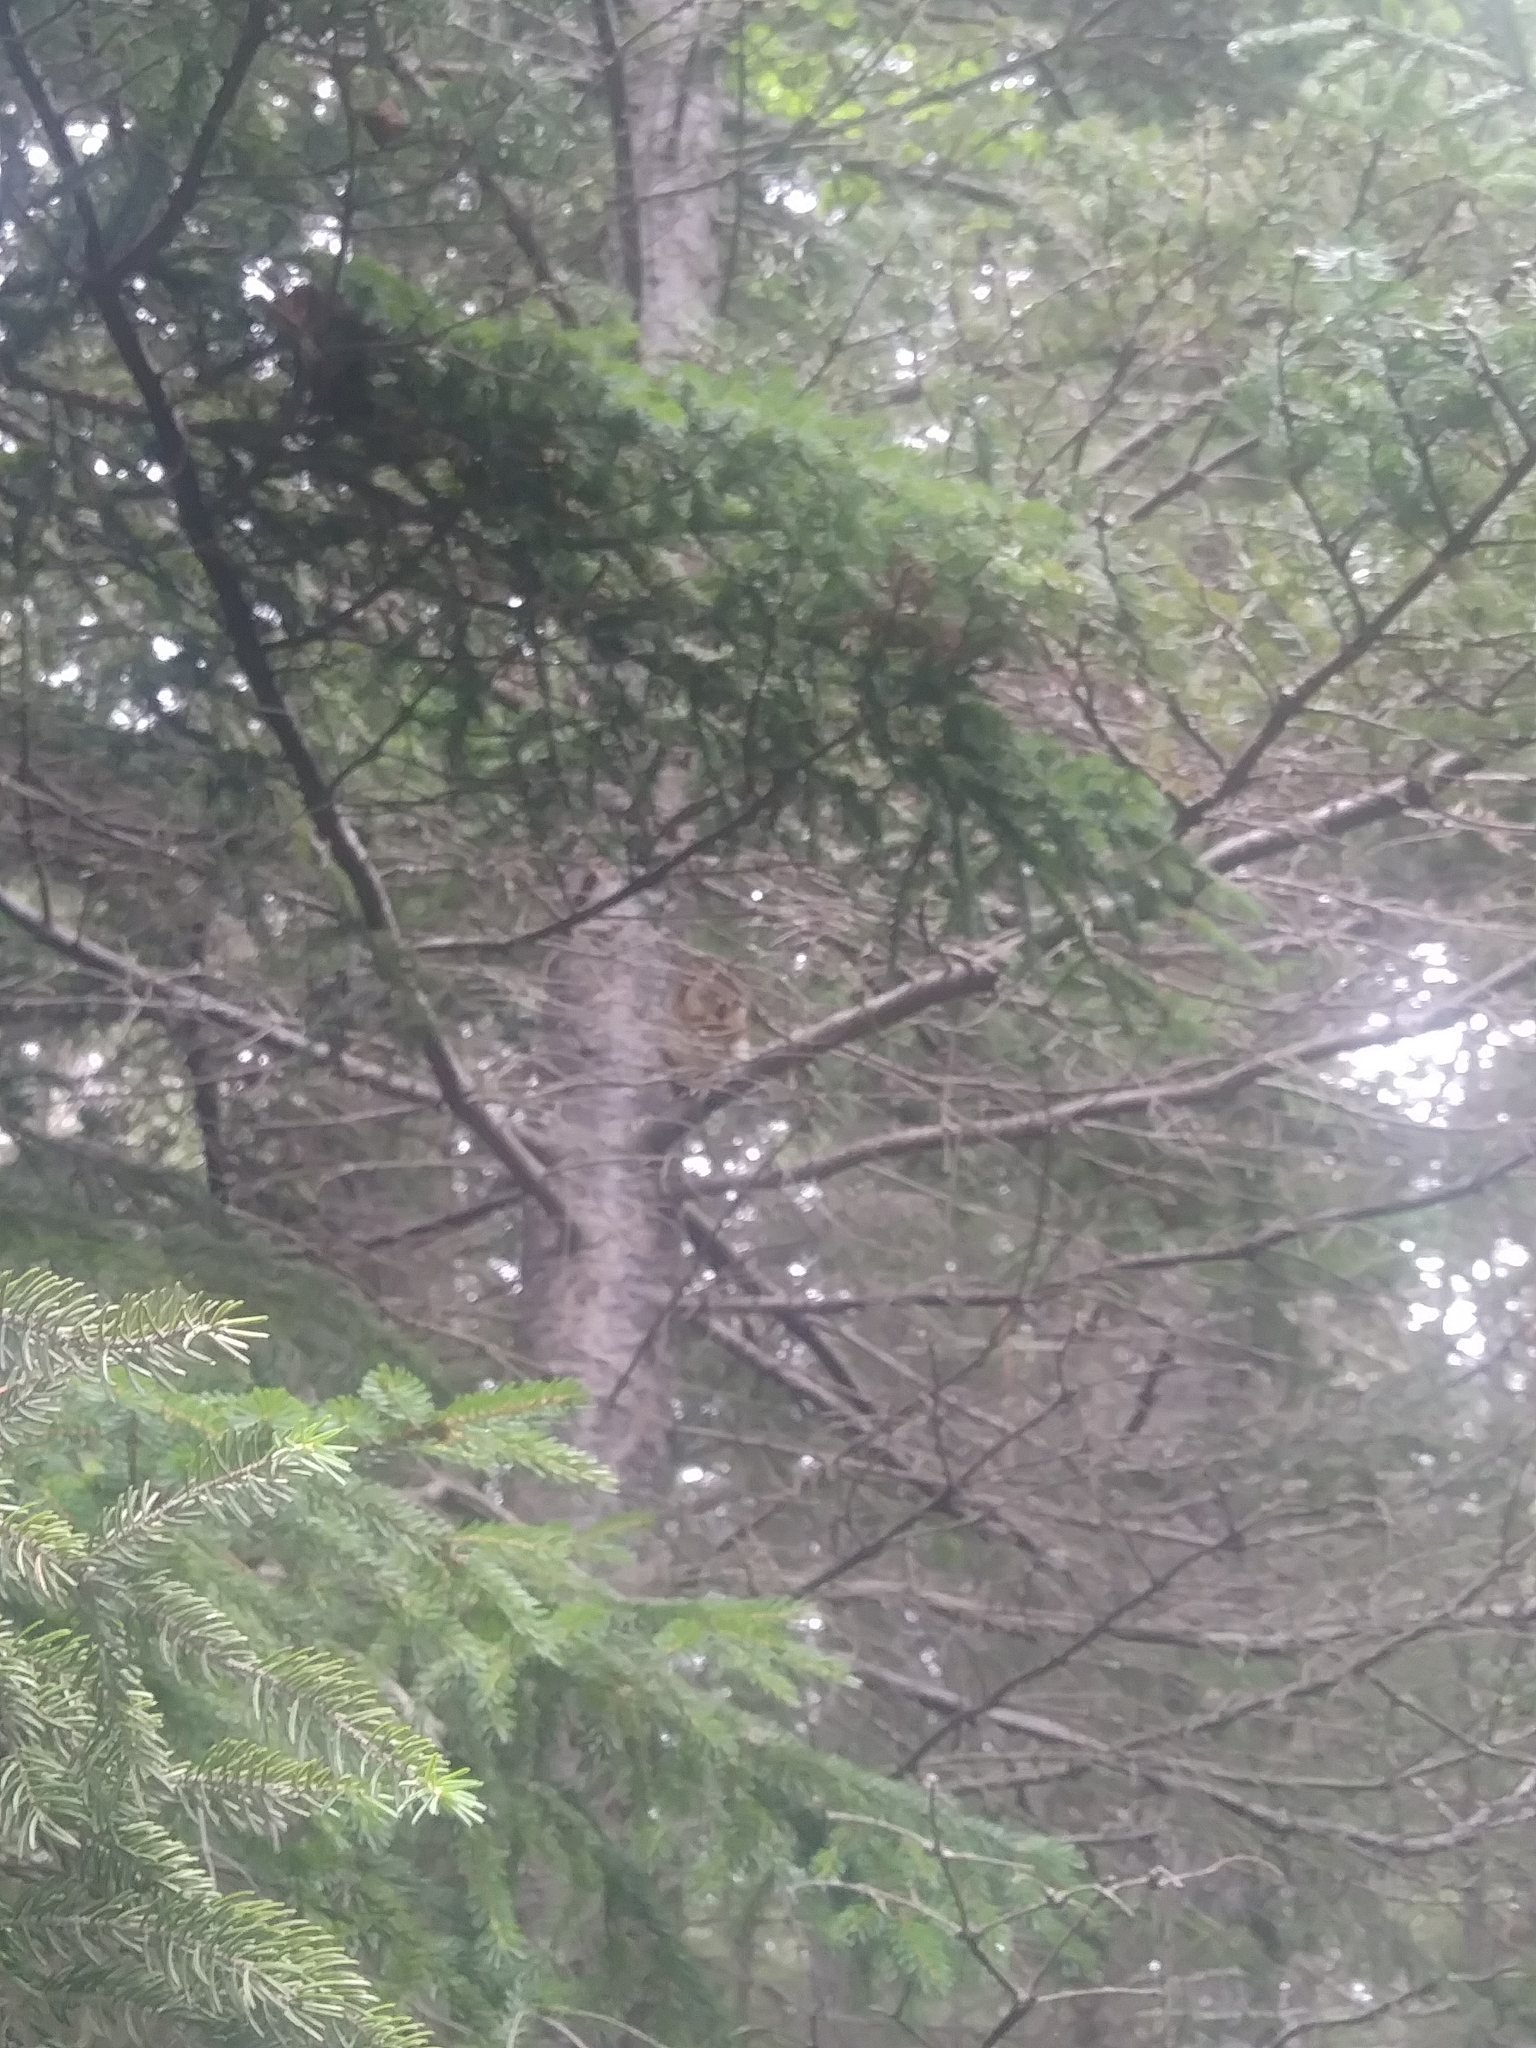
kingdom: Animalia
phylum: Chordata
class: Mammalia
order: Rodentia
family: Sciuridae
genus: Tamiasciurus
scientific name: Tamiasciurus hudsonicus
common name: Red squirrel
